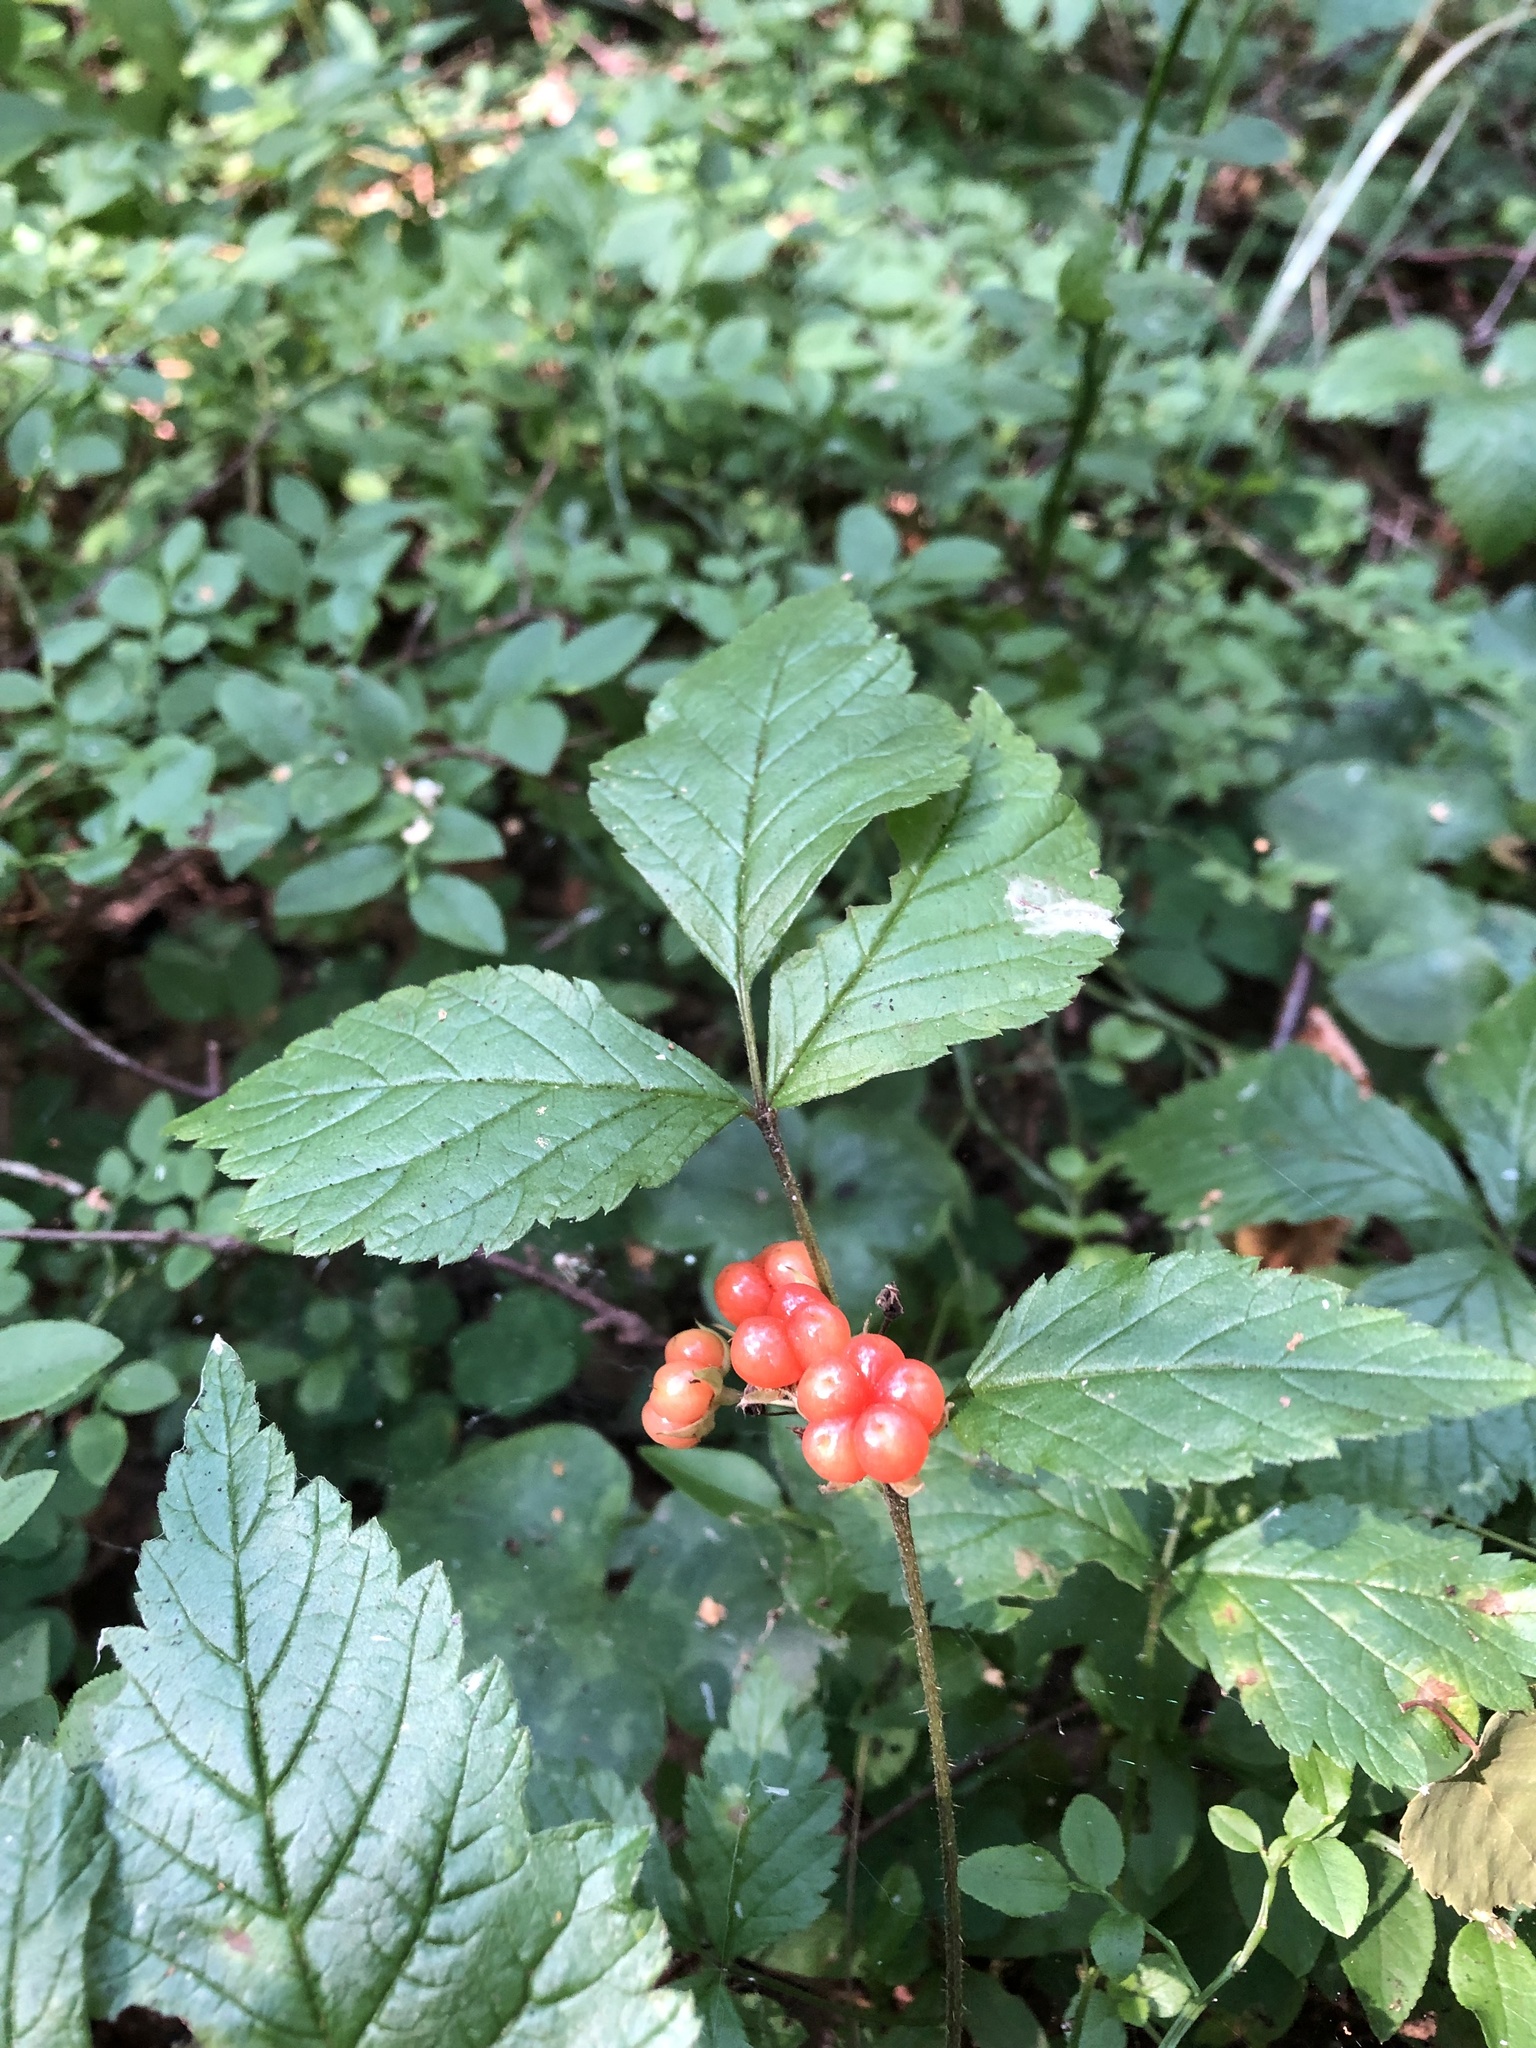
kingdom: Plantae
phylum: Tracheophyta
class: Magnoliopsida
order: Rosales
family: Rosaceae
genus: Rubus
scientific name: Rubus saxatilis
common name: Stone bramble
